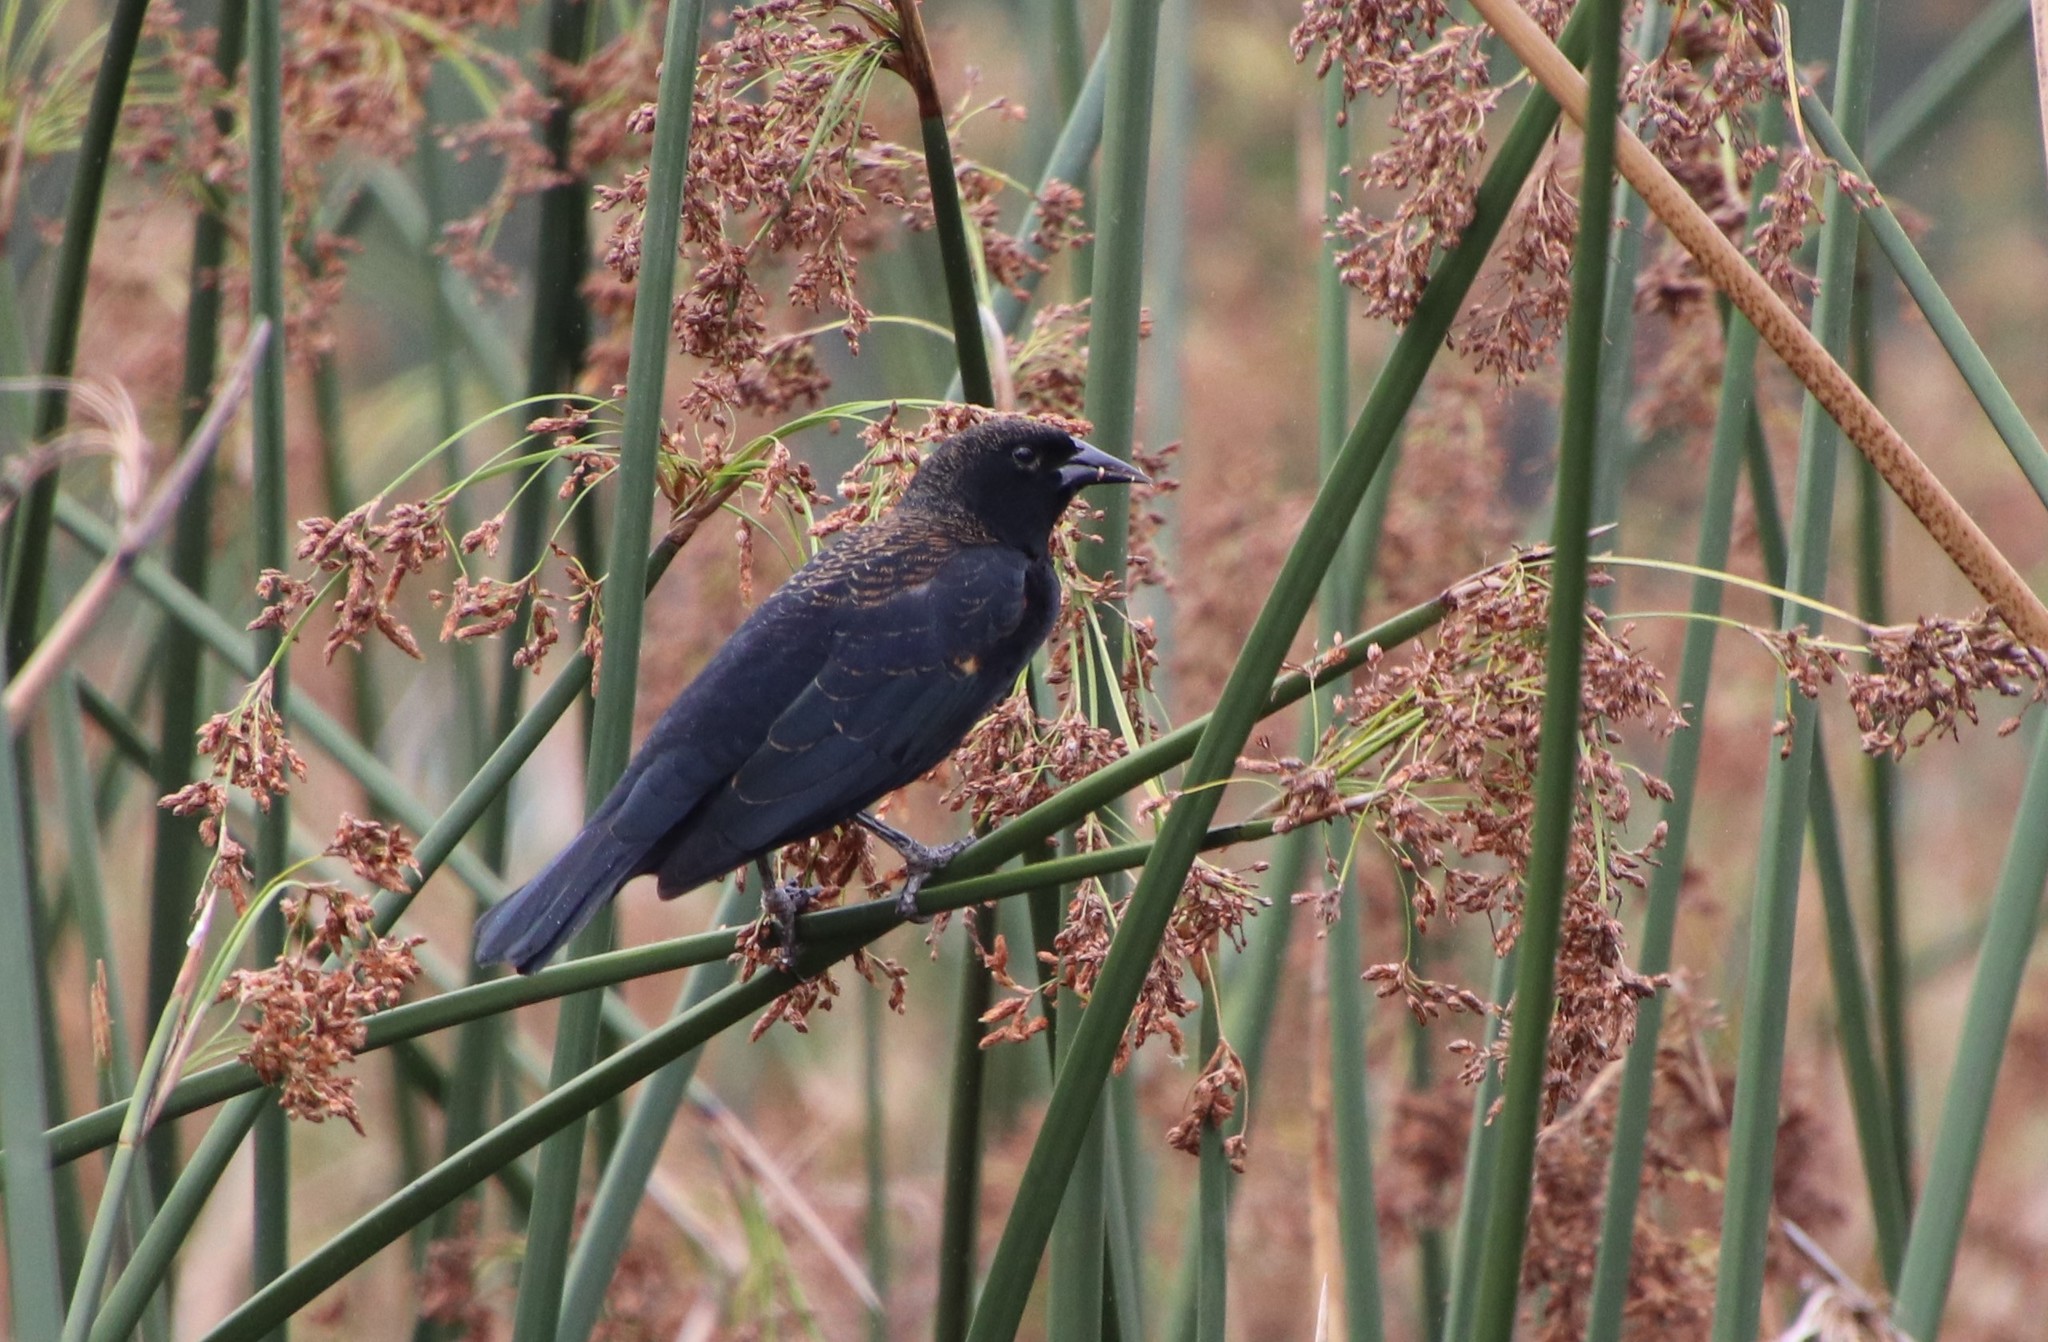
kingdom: Animalia
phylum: Chordata
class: Aves
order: Passeriformes
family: Icteridae
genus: Agelaius
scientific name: Agelaius phoeniceus
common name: Red-winged blackbird
